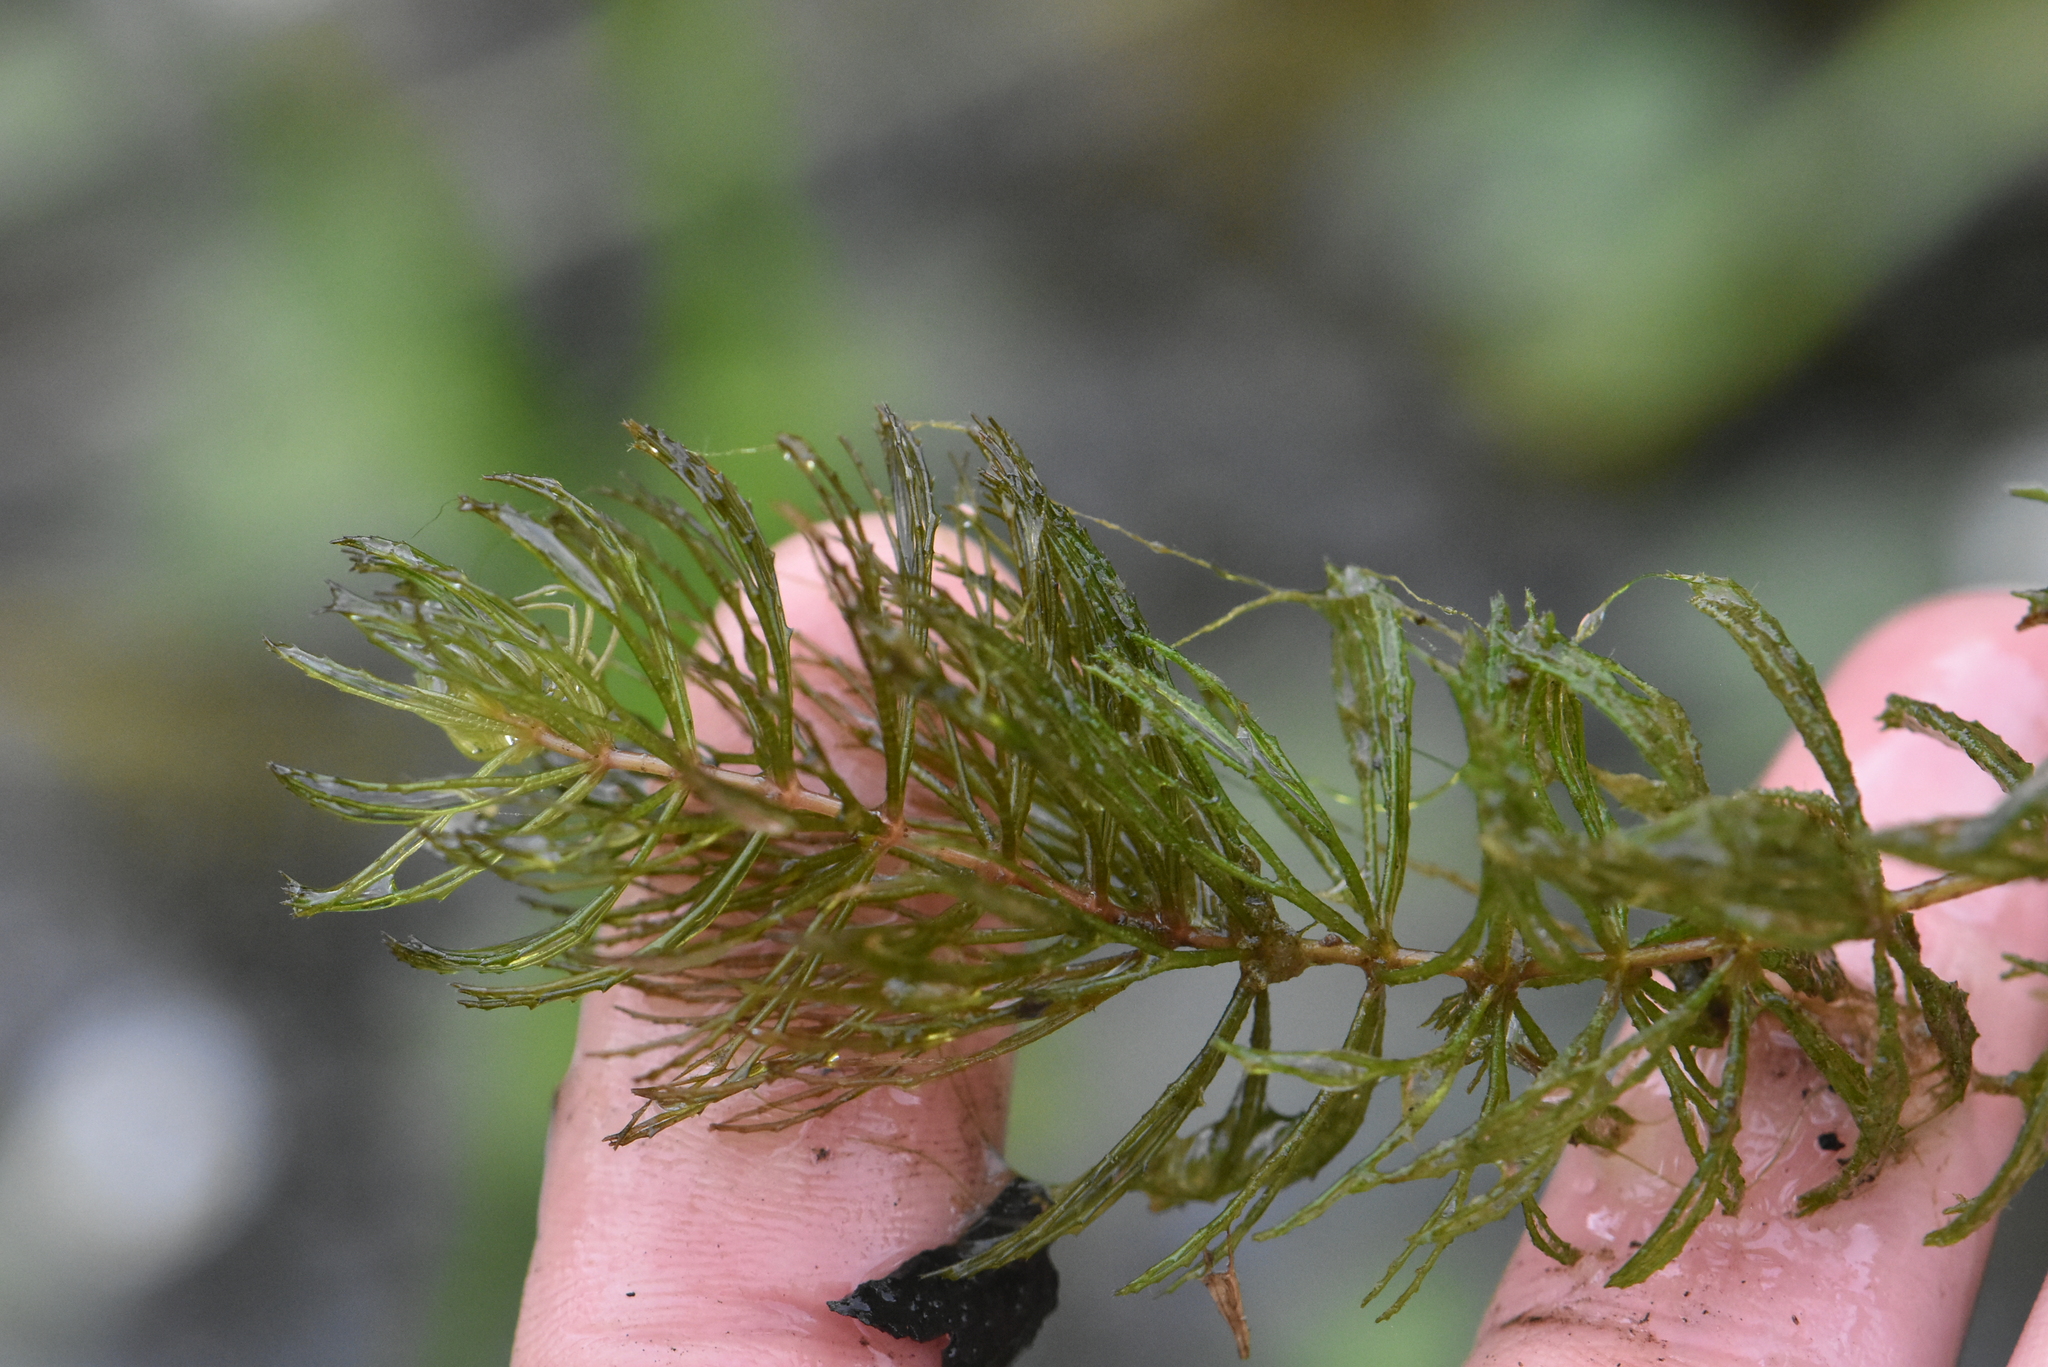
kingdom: Plantae
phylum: Tracheophyta
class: Magnoliopsida
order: Ceratophyllales
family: Ceratophyllaceae
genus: Ceratophyllum
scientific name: Ceratophyllum demersum
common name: Rigid hornwort
